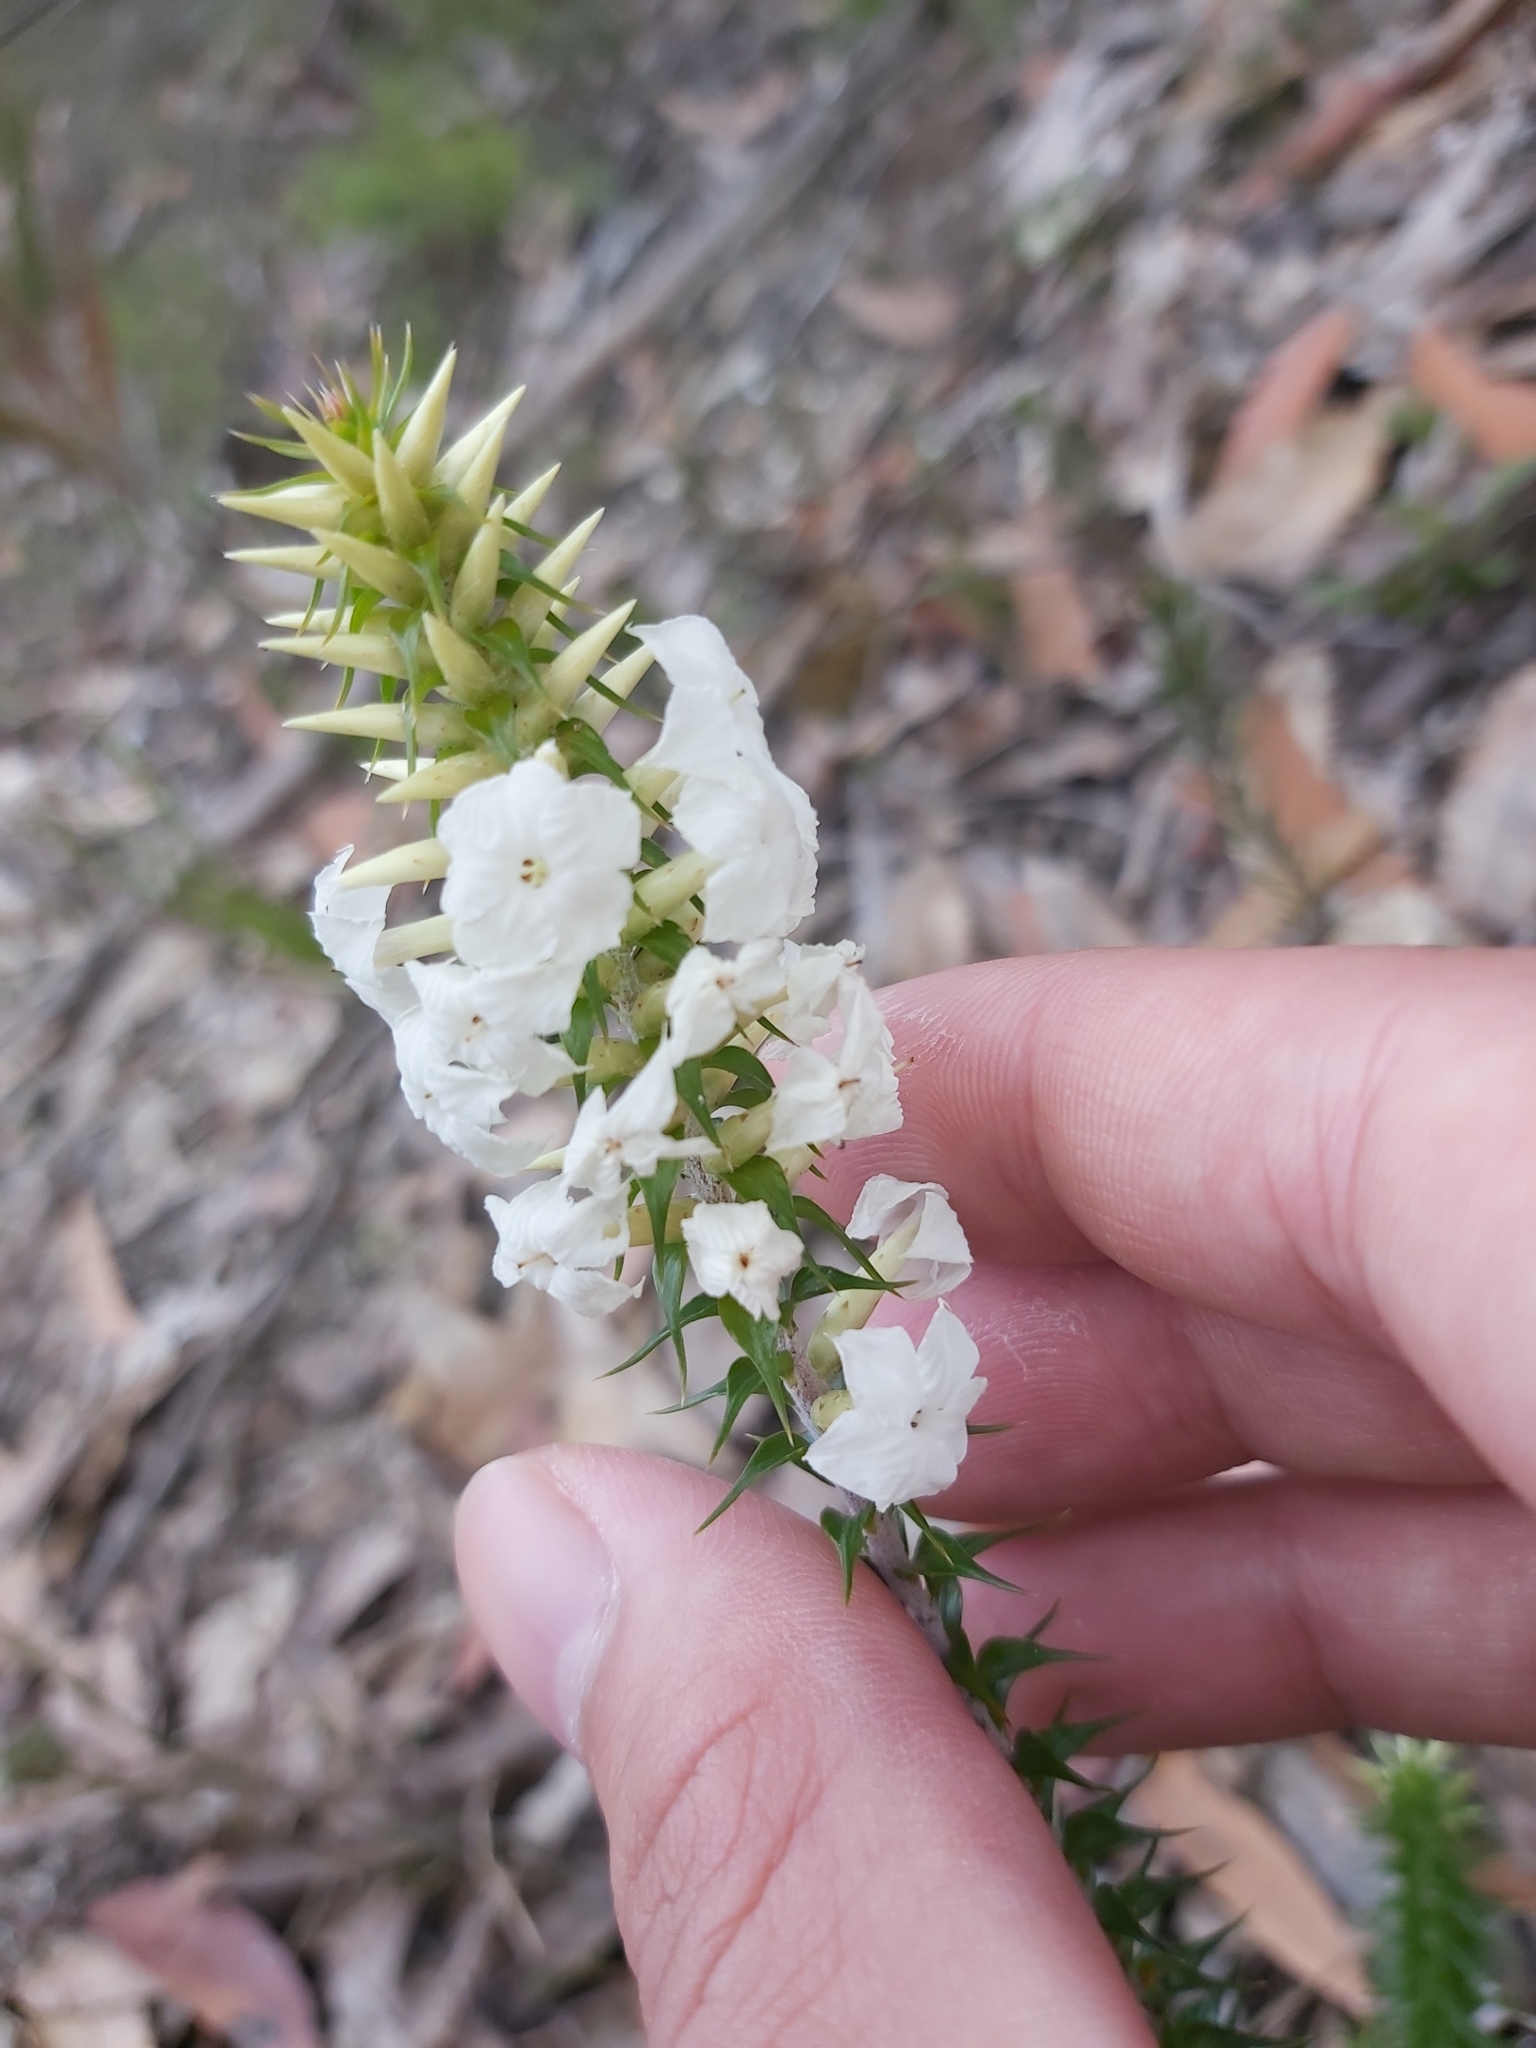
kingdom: Plantae
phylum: Tracheophyta
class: Magnoliopsida
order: Ericales
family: Ericaceae
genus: Woollsia
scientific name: Woollsia pungens
